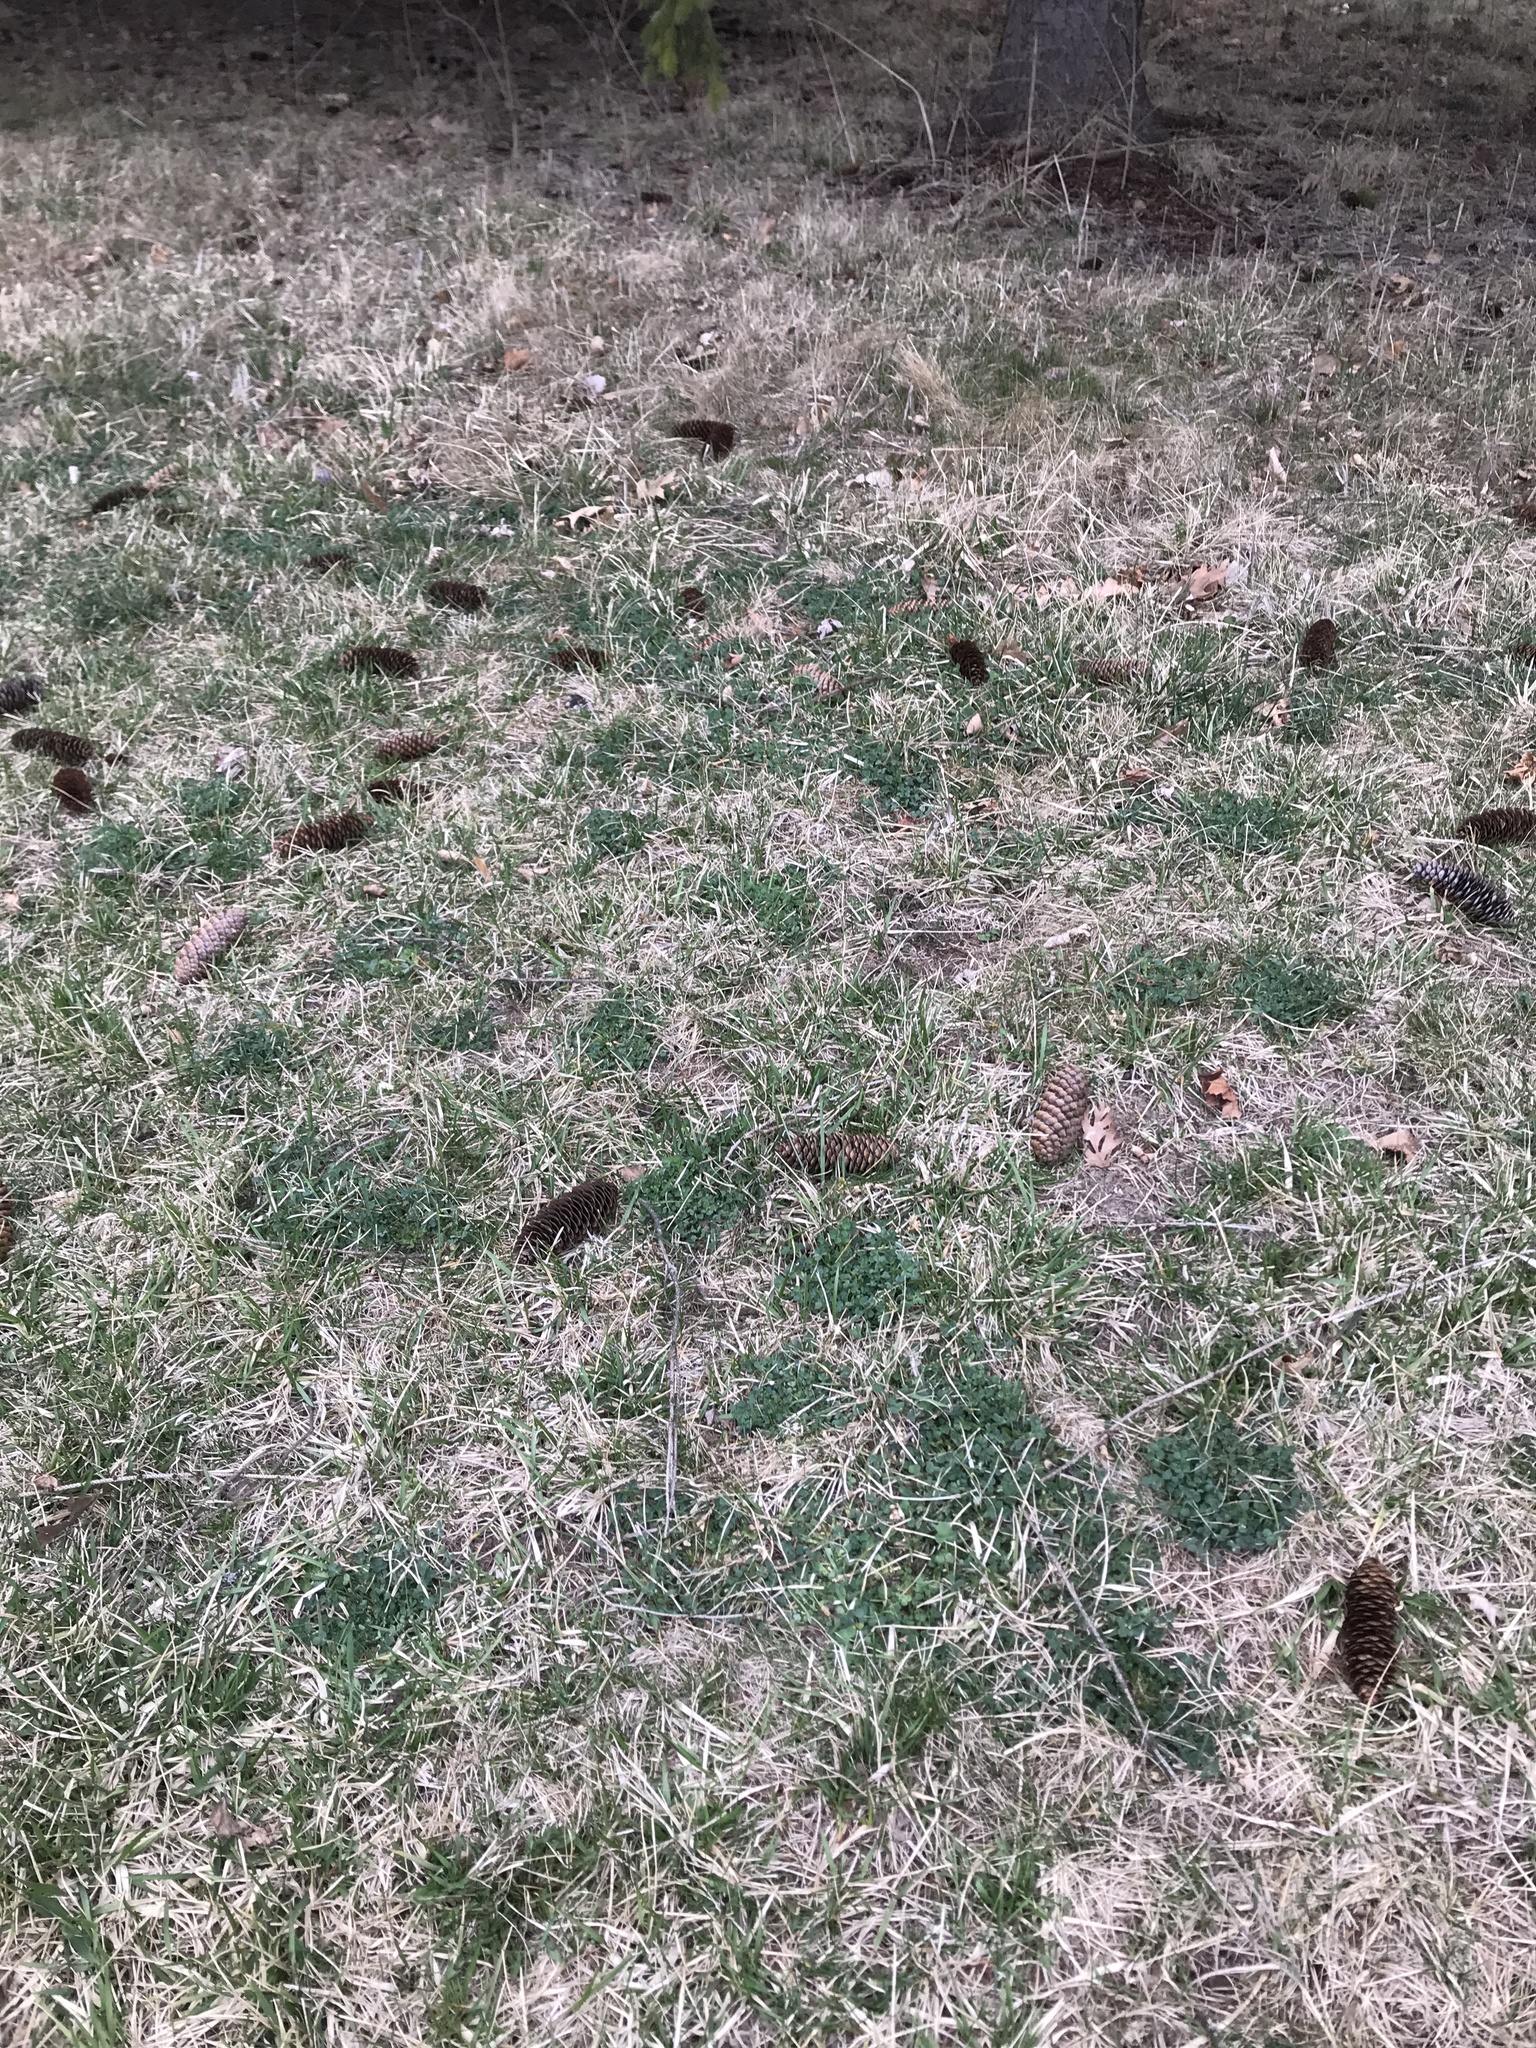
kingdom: Plantae
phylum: Tracheophyta
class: Magnoliopsida
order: Fabales
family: Fabaceae
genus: Medicago
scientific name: Medicago lupulina
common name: Black medick
